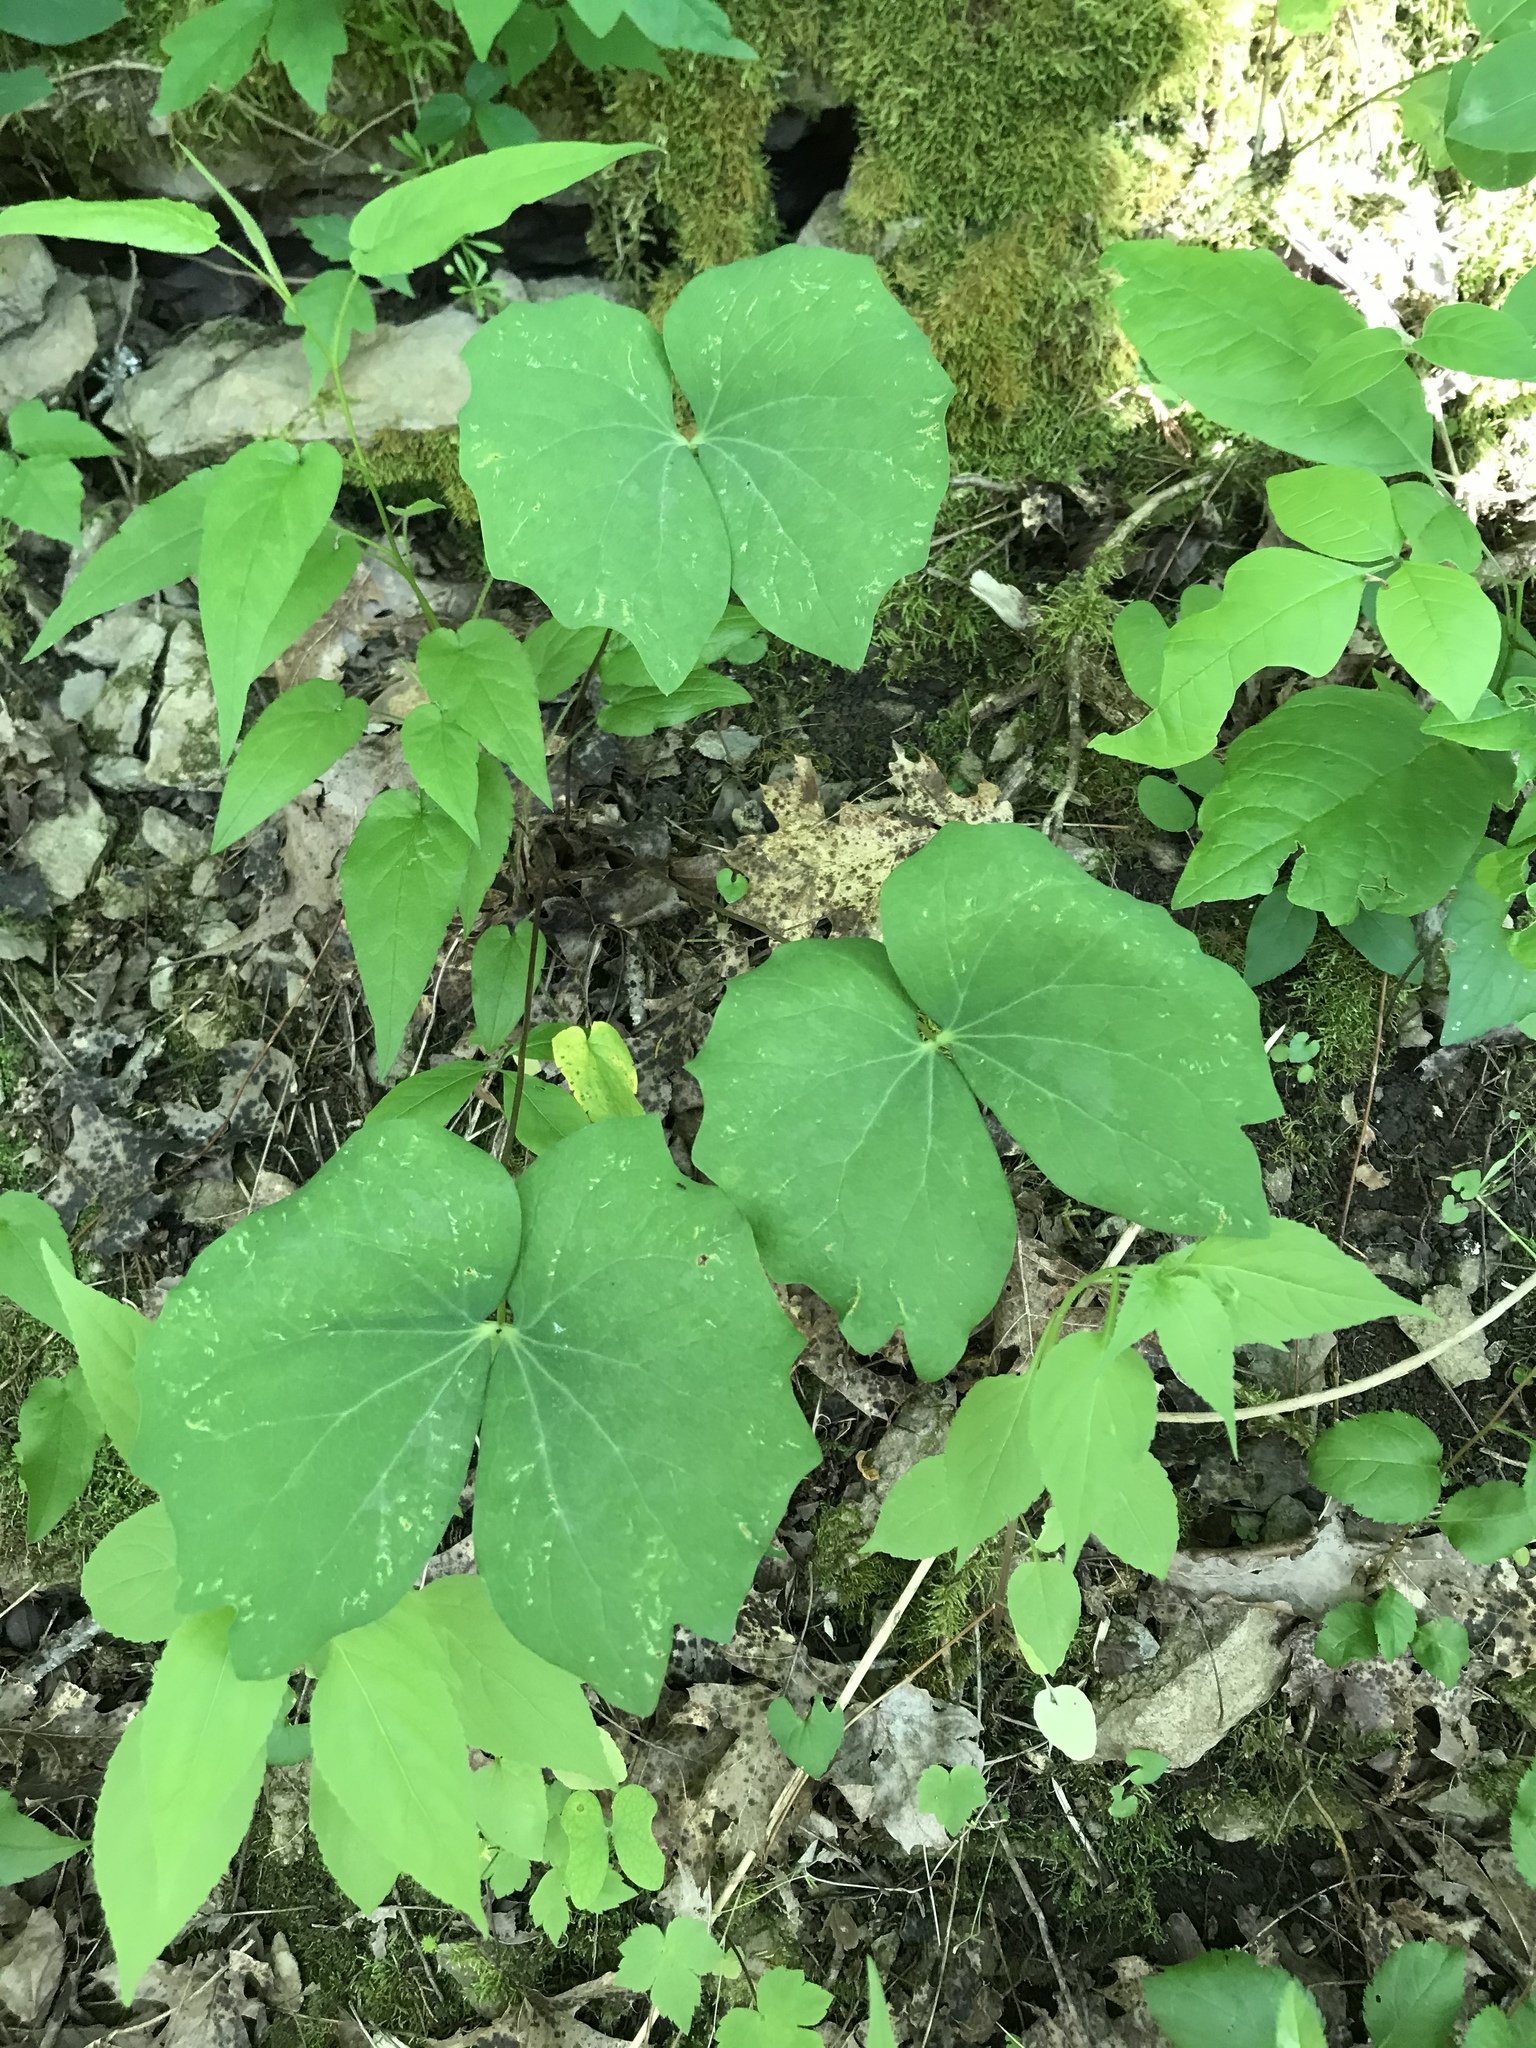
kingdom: Plantae
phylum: Tracheophyta
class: Magnoliopsida
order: Ranunculales
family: Berberidaceae
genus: Jeffersonia
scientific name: Jeffersonia diphylla
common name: Rheumatism-root
